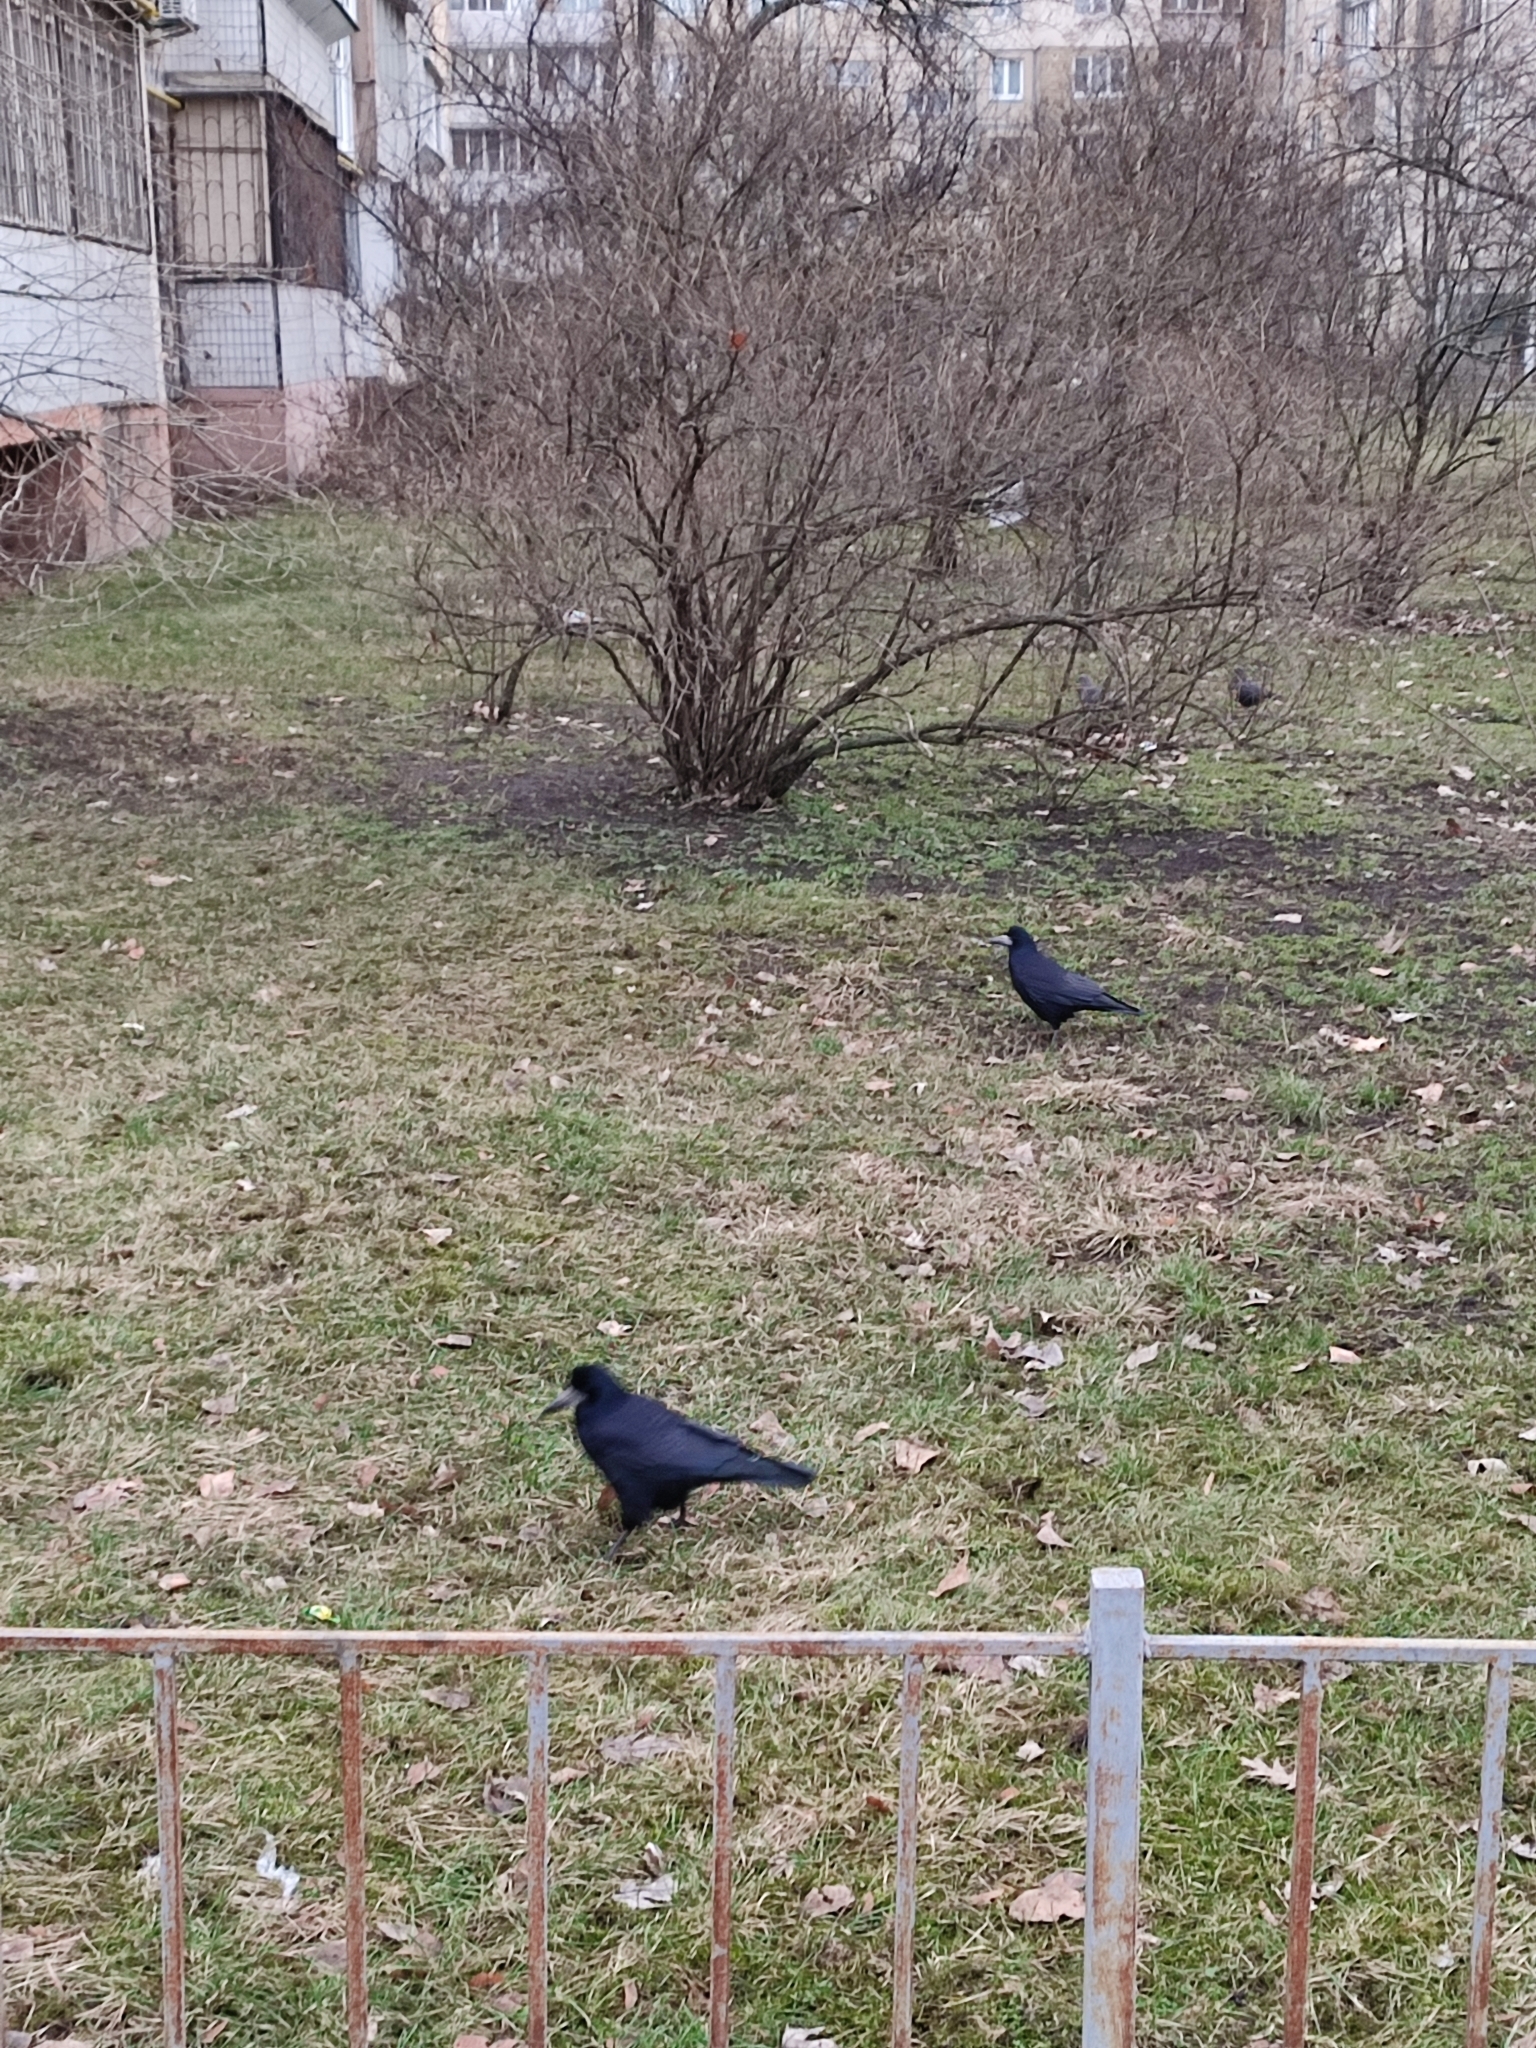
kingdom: Animalia
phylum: Chordata
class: Aves
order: Passeriformes
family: Corvidae
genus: Corvus
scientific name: Corvus frugilegus
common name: Rook
